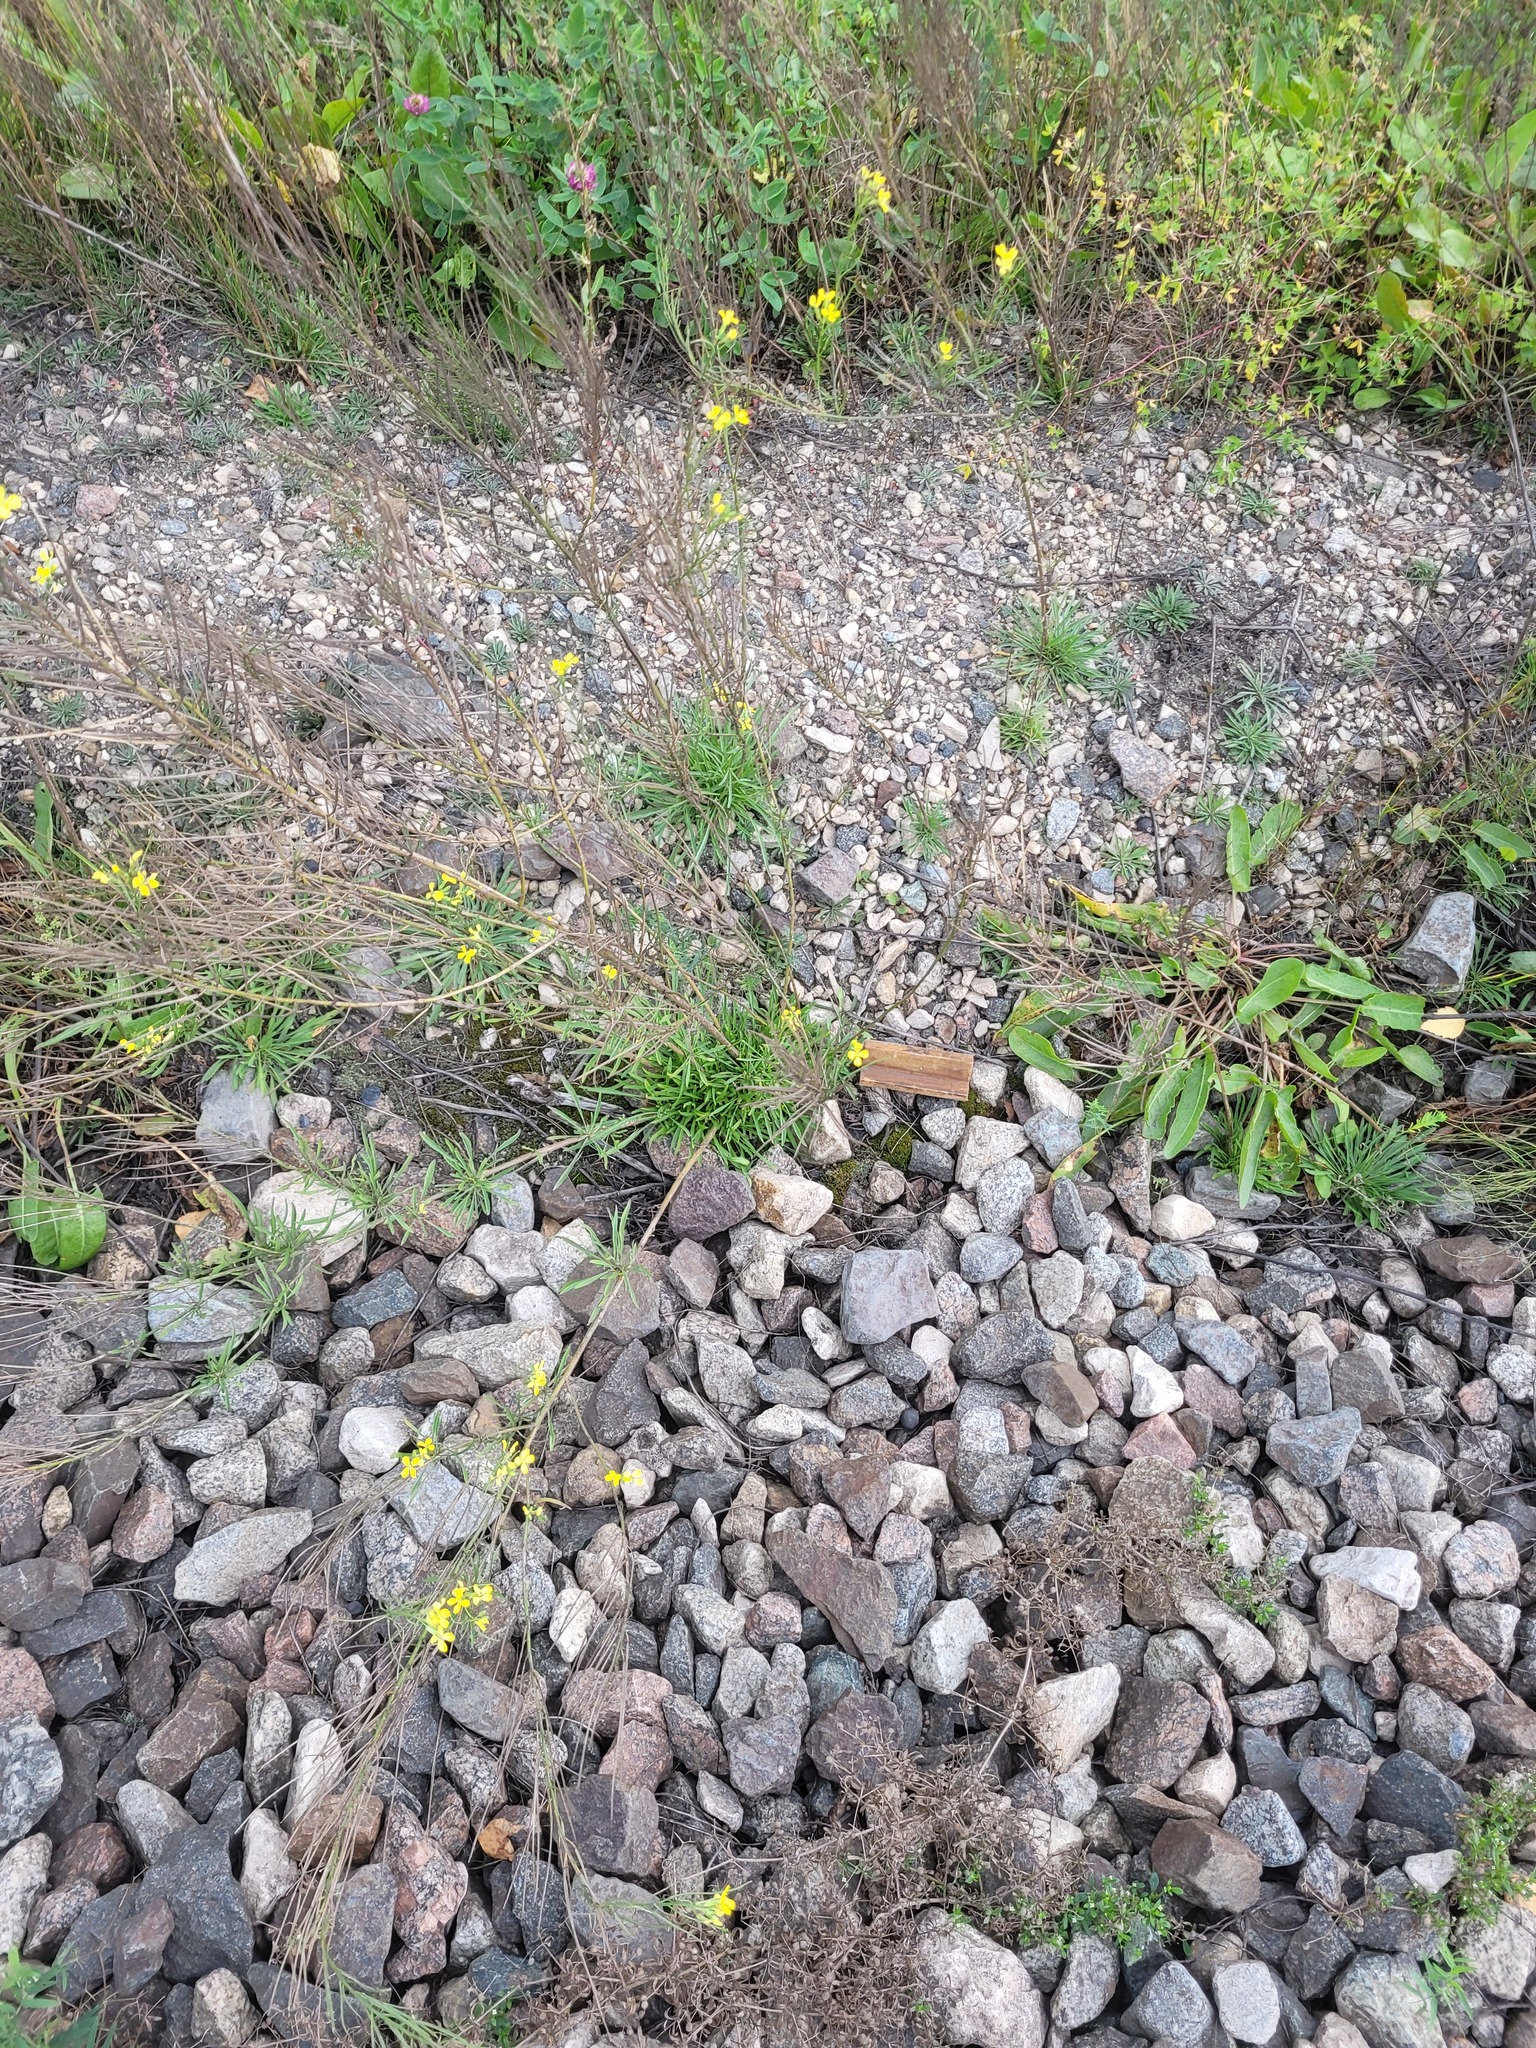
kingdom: Plantae
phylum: Tracheophyta
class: Magnoliopsida
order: Brassicales
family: Brassicaceae
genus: Erysimum
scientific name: Erysimum diffusum
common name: Diffuse wallflower
